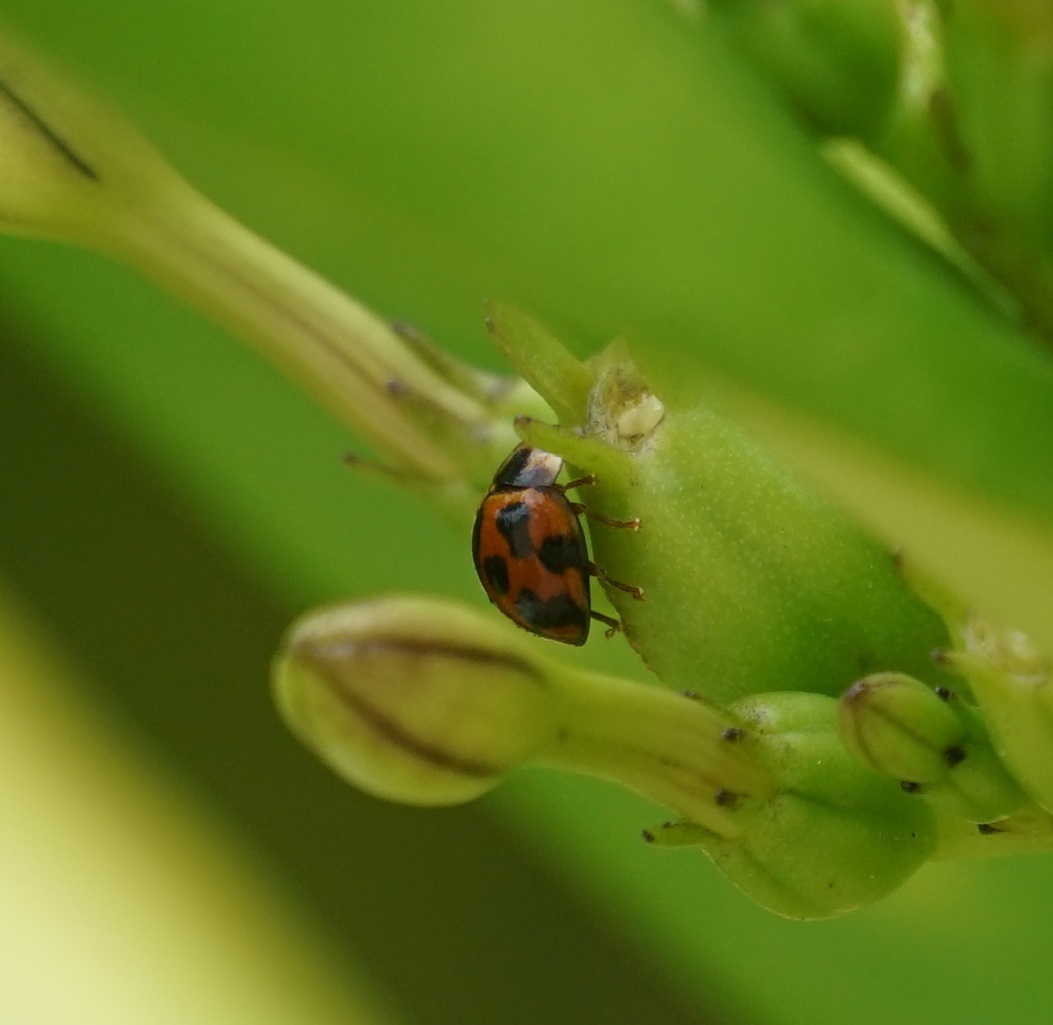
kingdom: Animalia
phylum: Arthropoda
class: Insecta
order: Coleoptera
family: Coccinellidae
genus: Coelophora
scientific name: Coelophora inaequalis
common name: Common australian lady beetle
